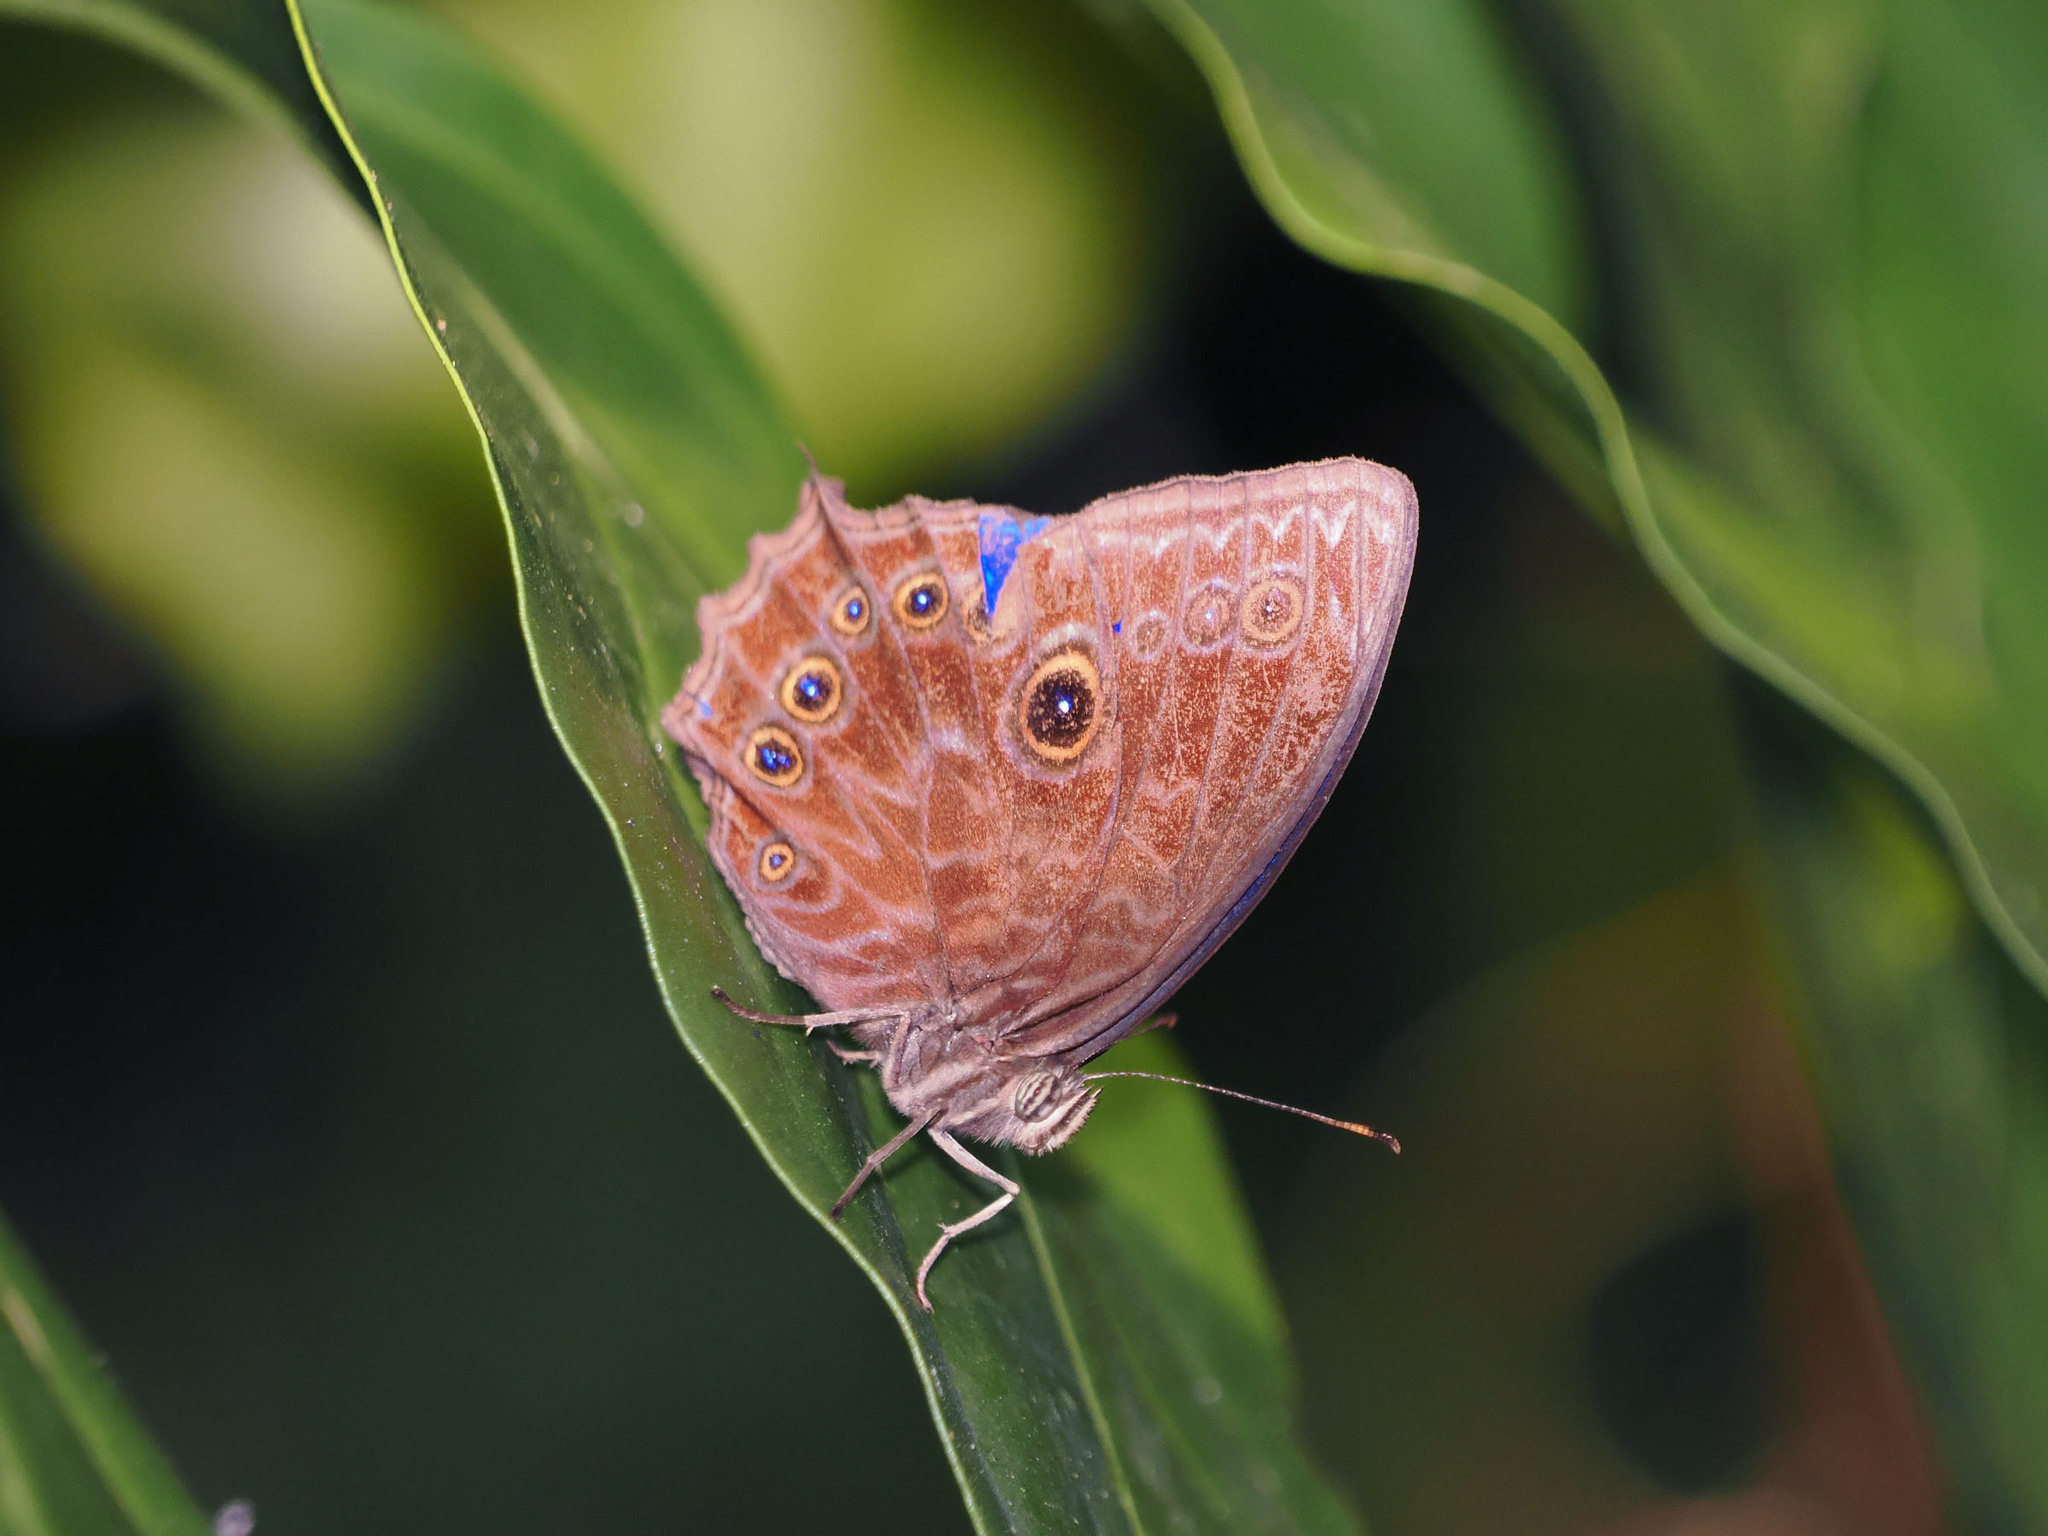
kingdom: Animalia
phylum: Arthropoda
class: Insecta
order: Lepidoptera
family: Nymphalidae
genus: Ptychandra
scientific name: Ptychandra lorquinii
